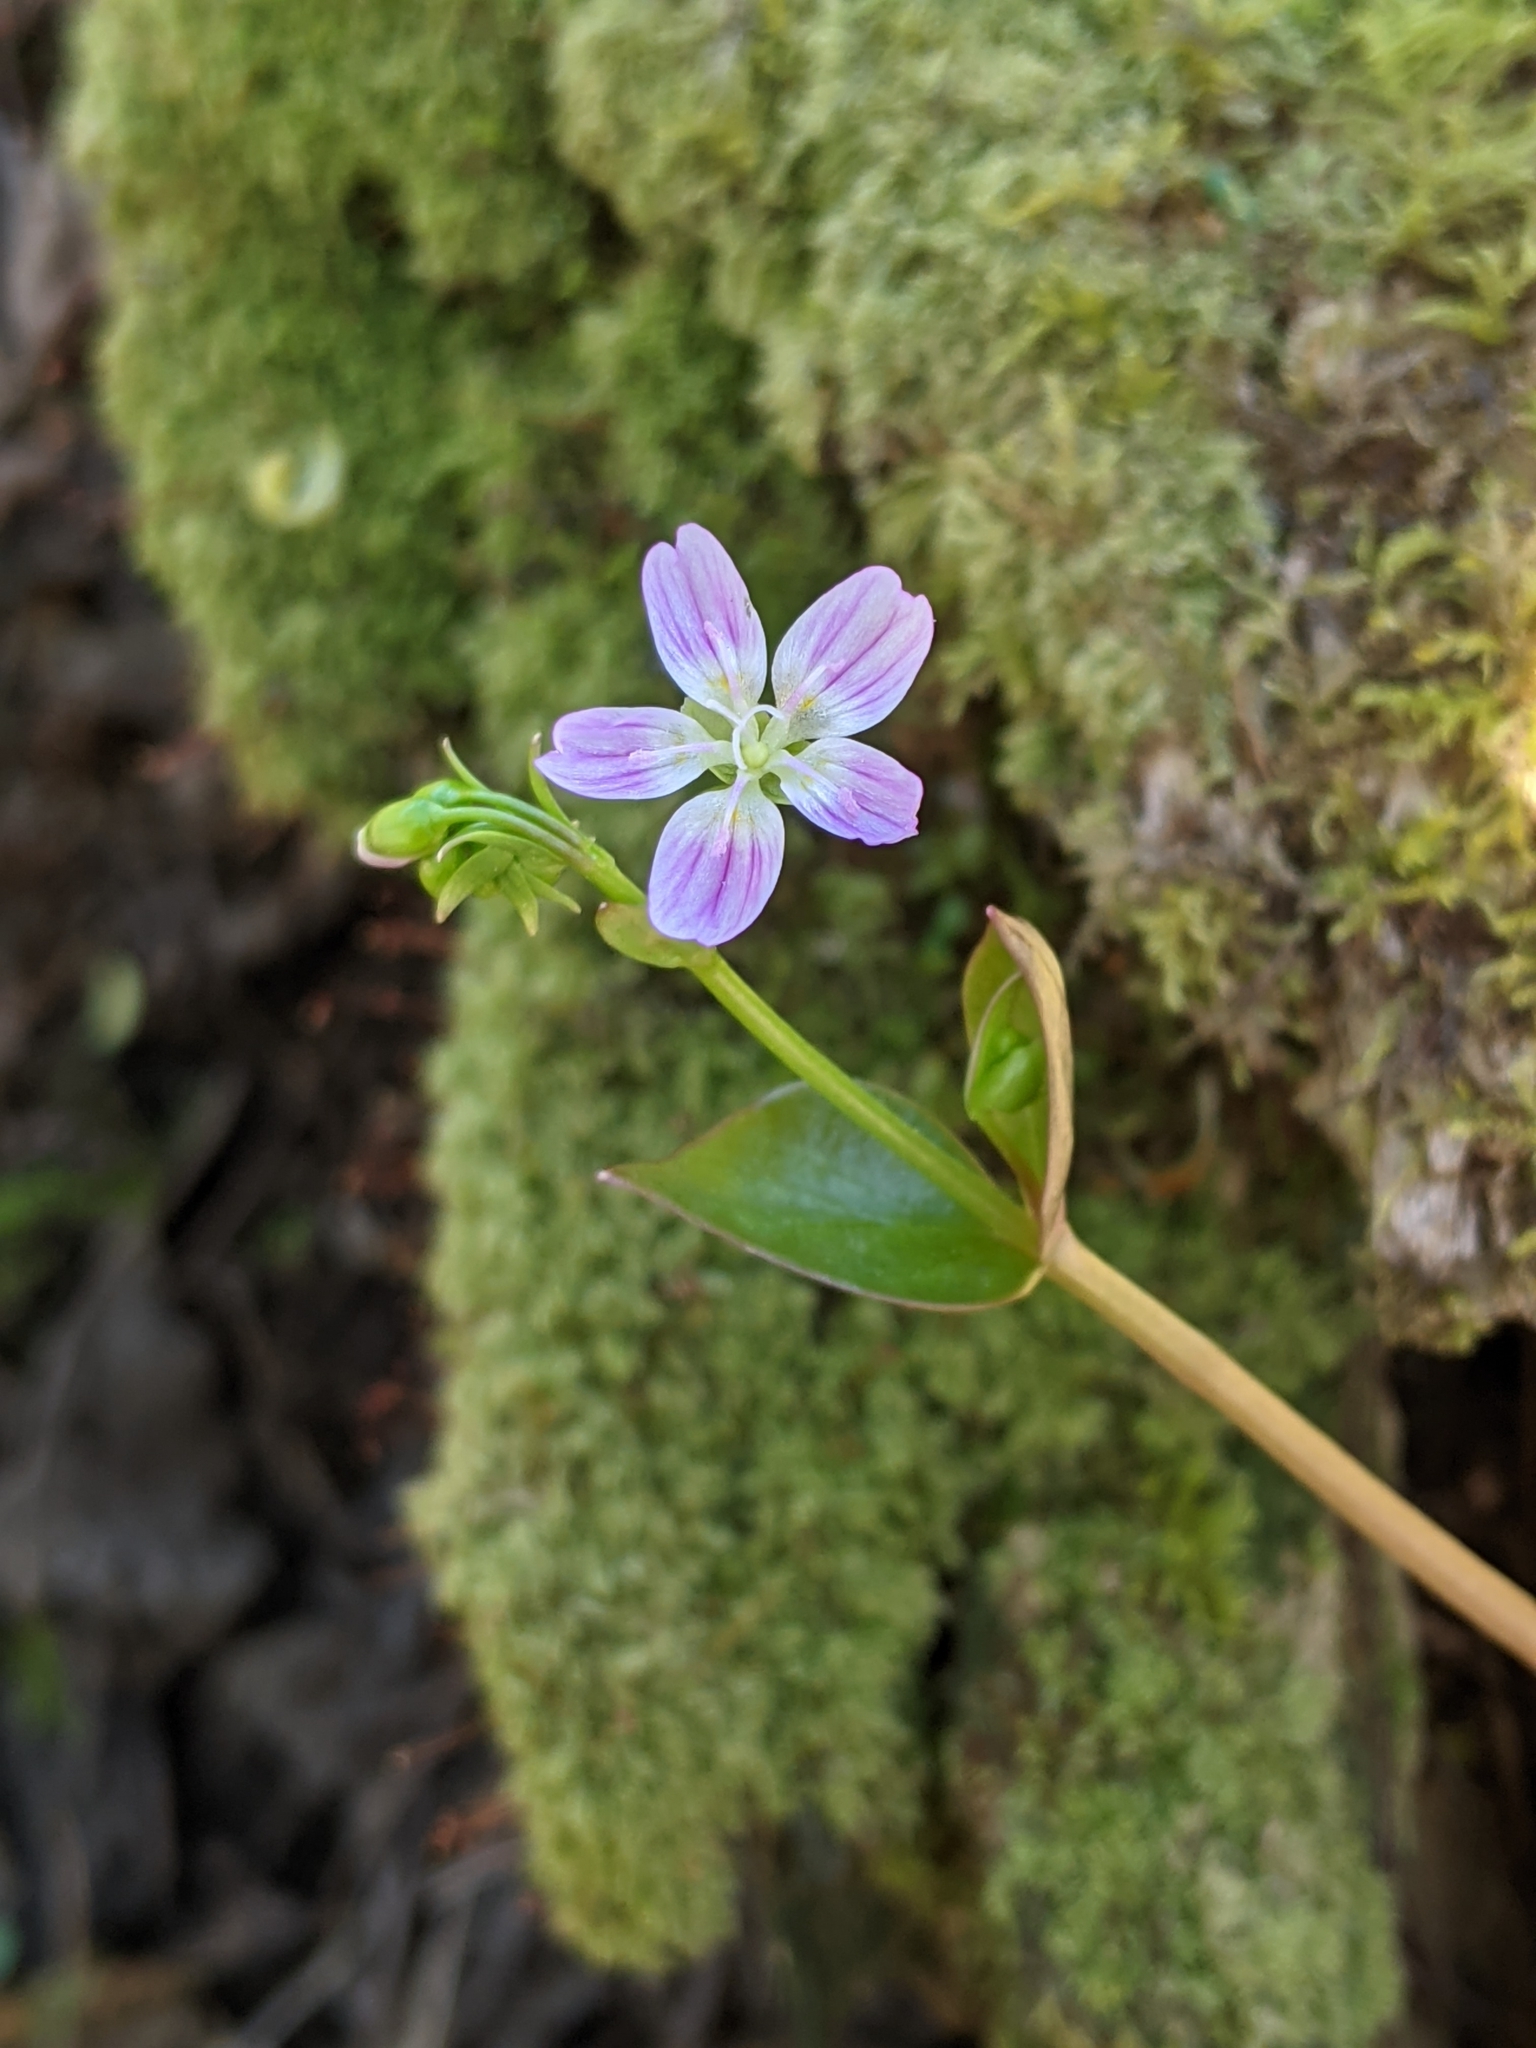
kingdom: Plantae
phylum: Tracheophyta
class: Magnoliopsida
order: Caryophyllales
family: Montiaceae
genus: Claytonia
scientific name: Claytonia sibirica
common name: Pink purslane
